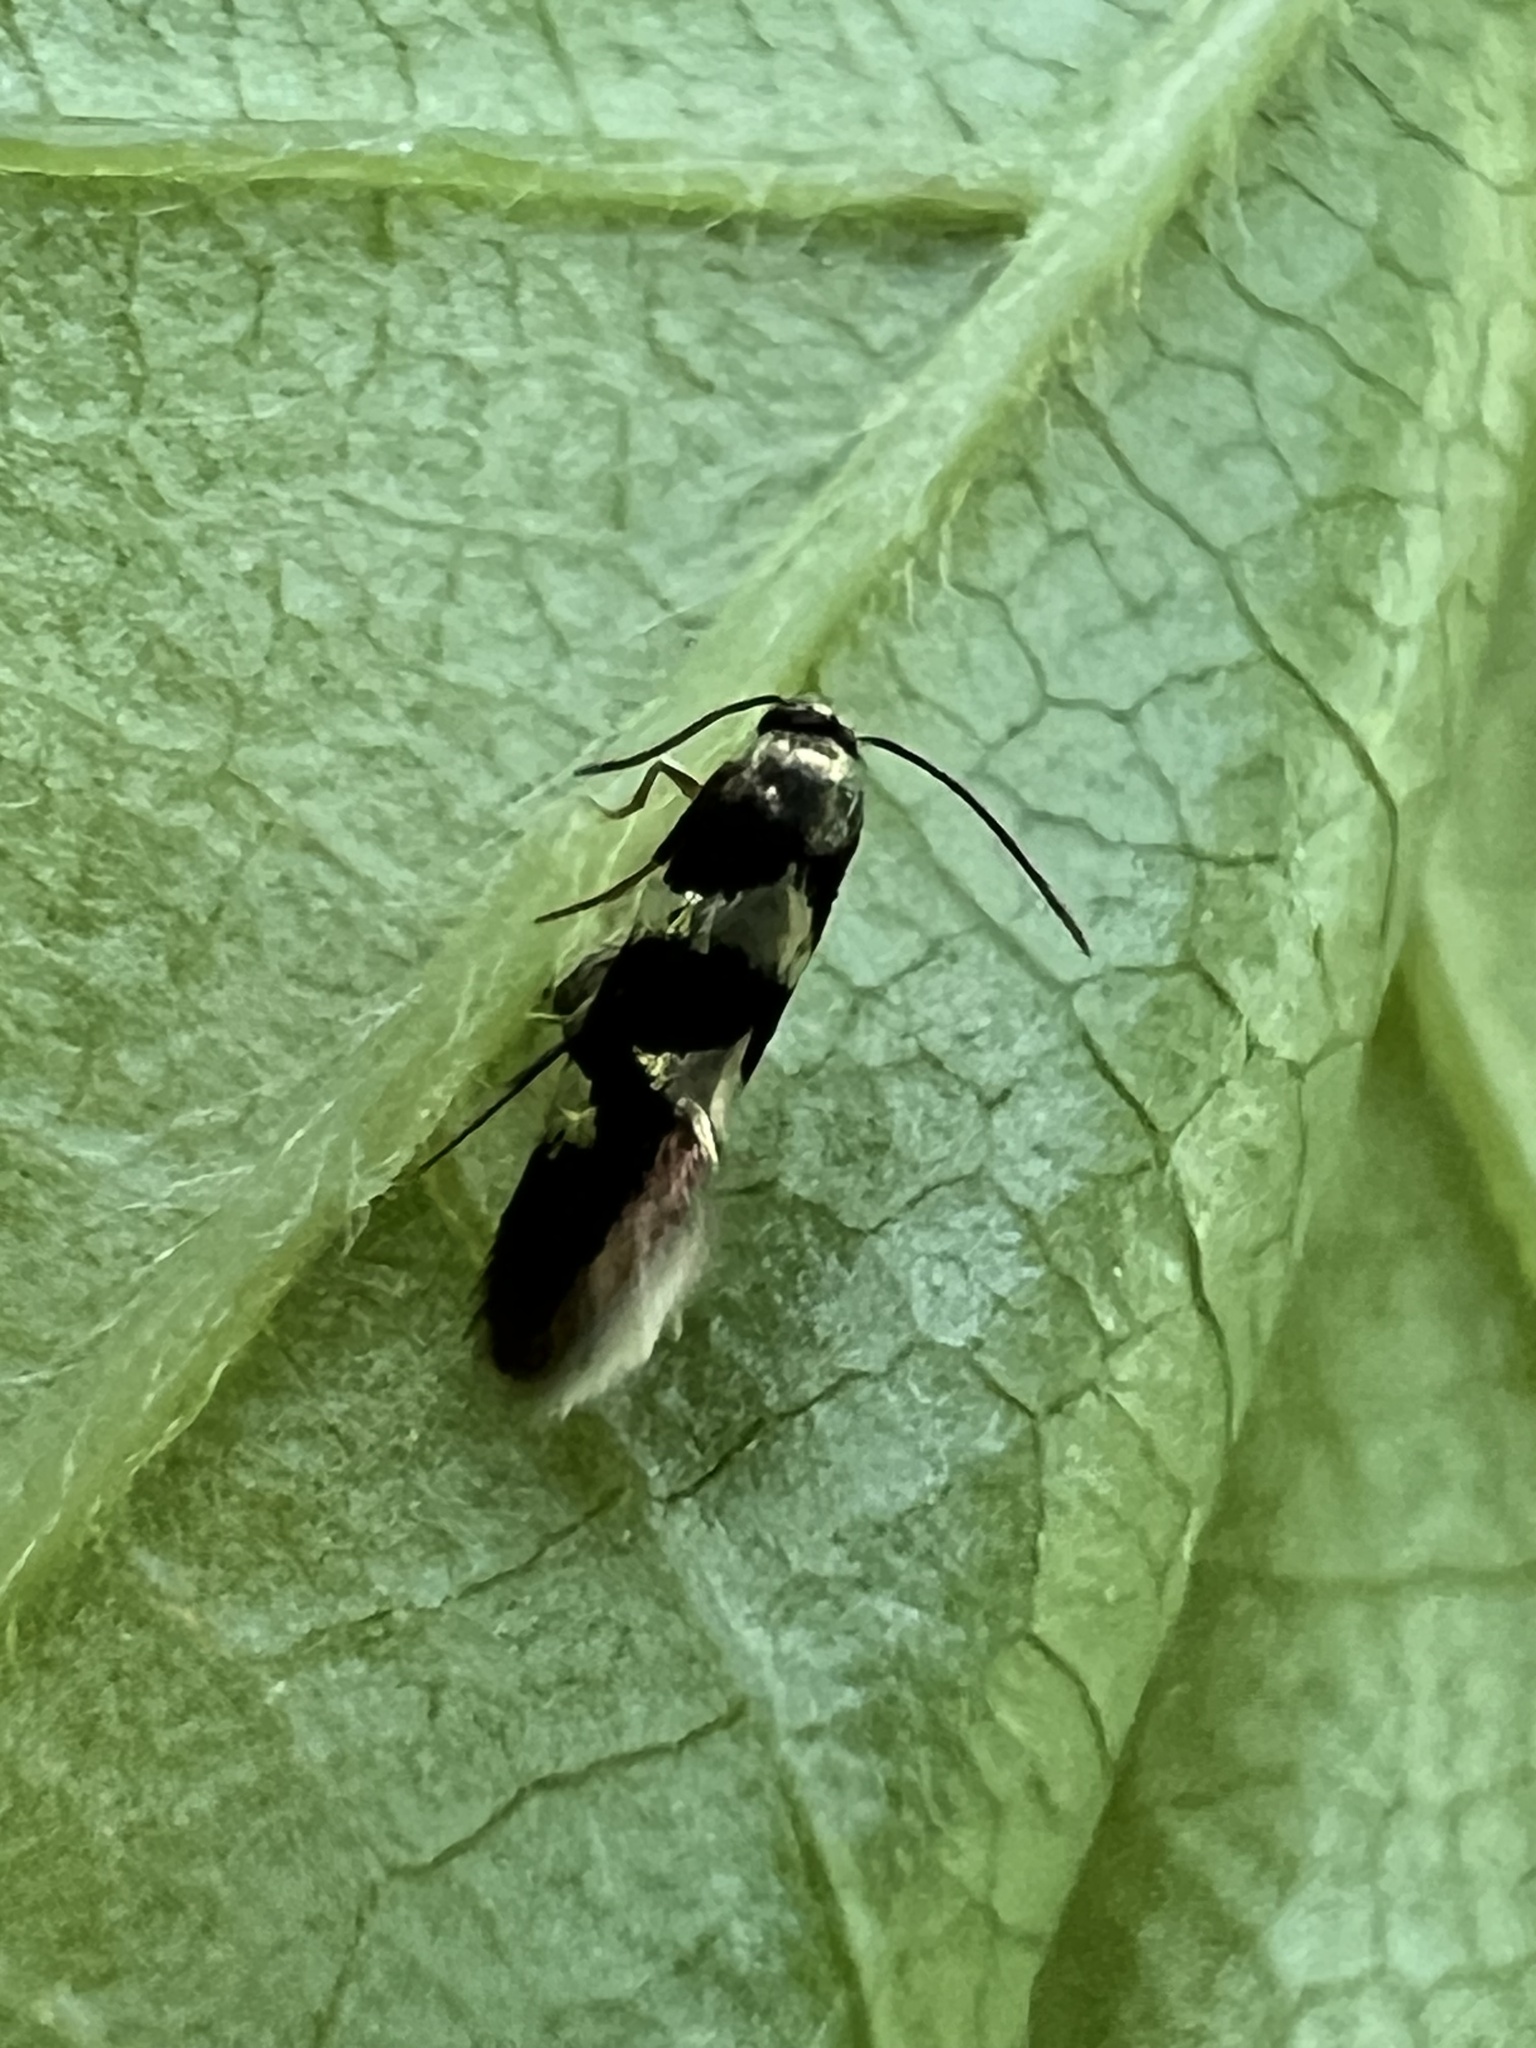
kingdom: Animalia
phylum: Arthropoda
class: Insecta
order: Lepidoptera
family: Heliozelidae
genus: Antispila
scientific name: Antispila nyssaefoliella
